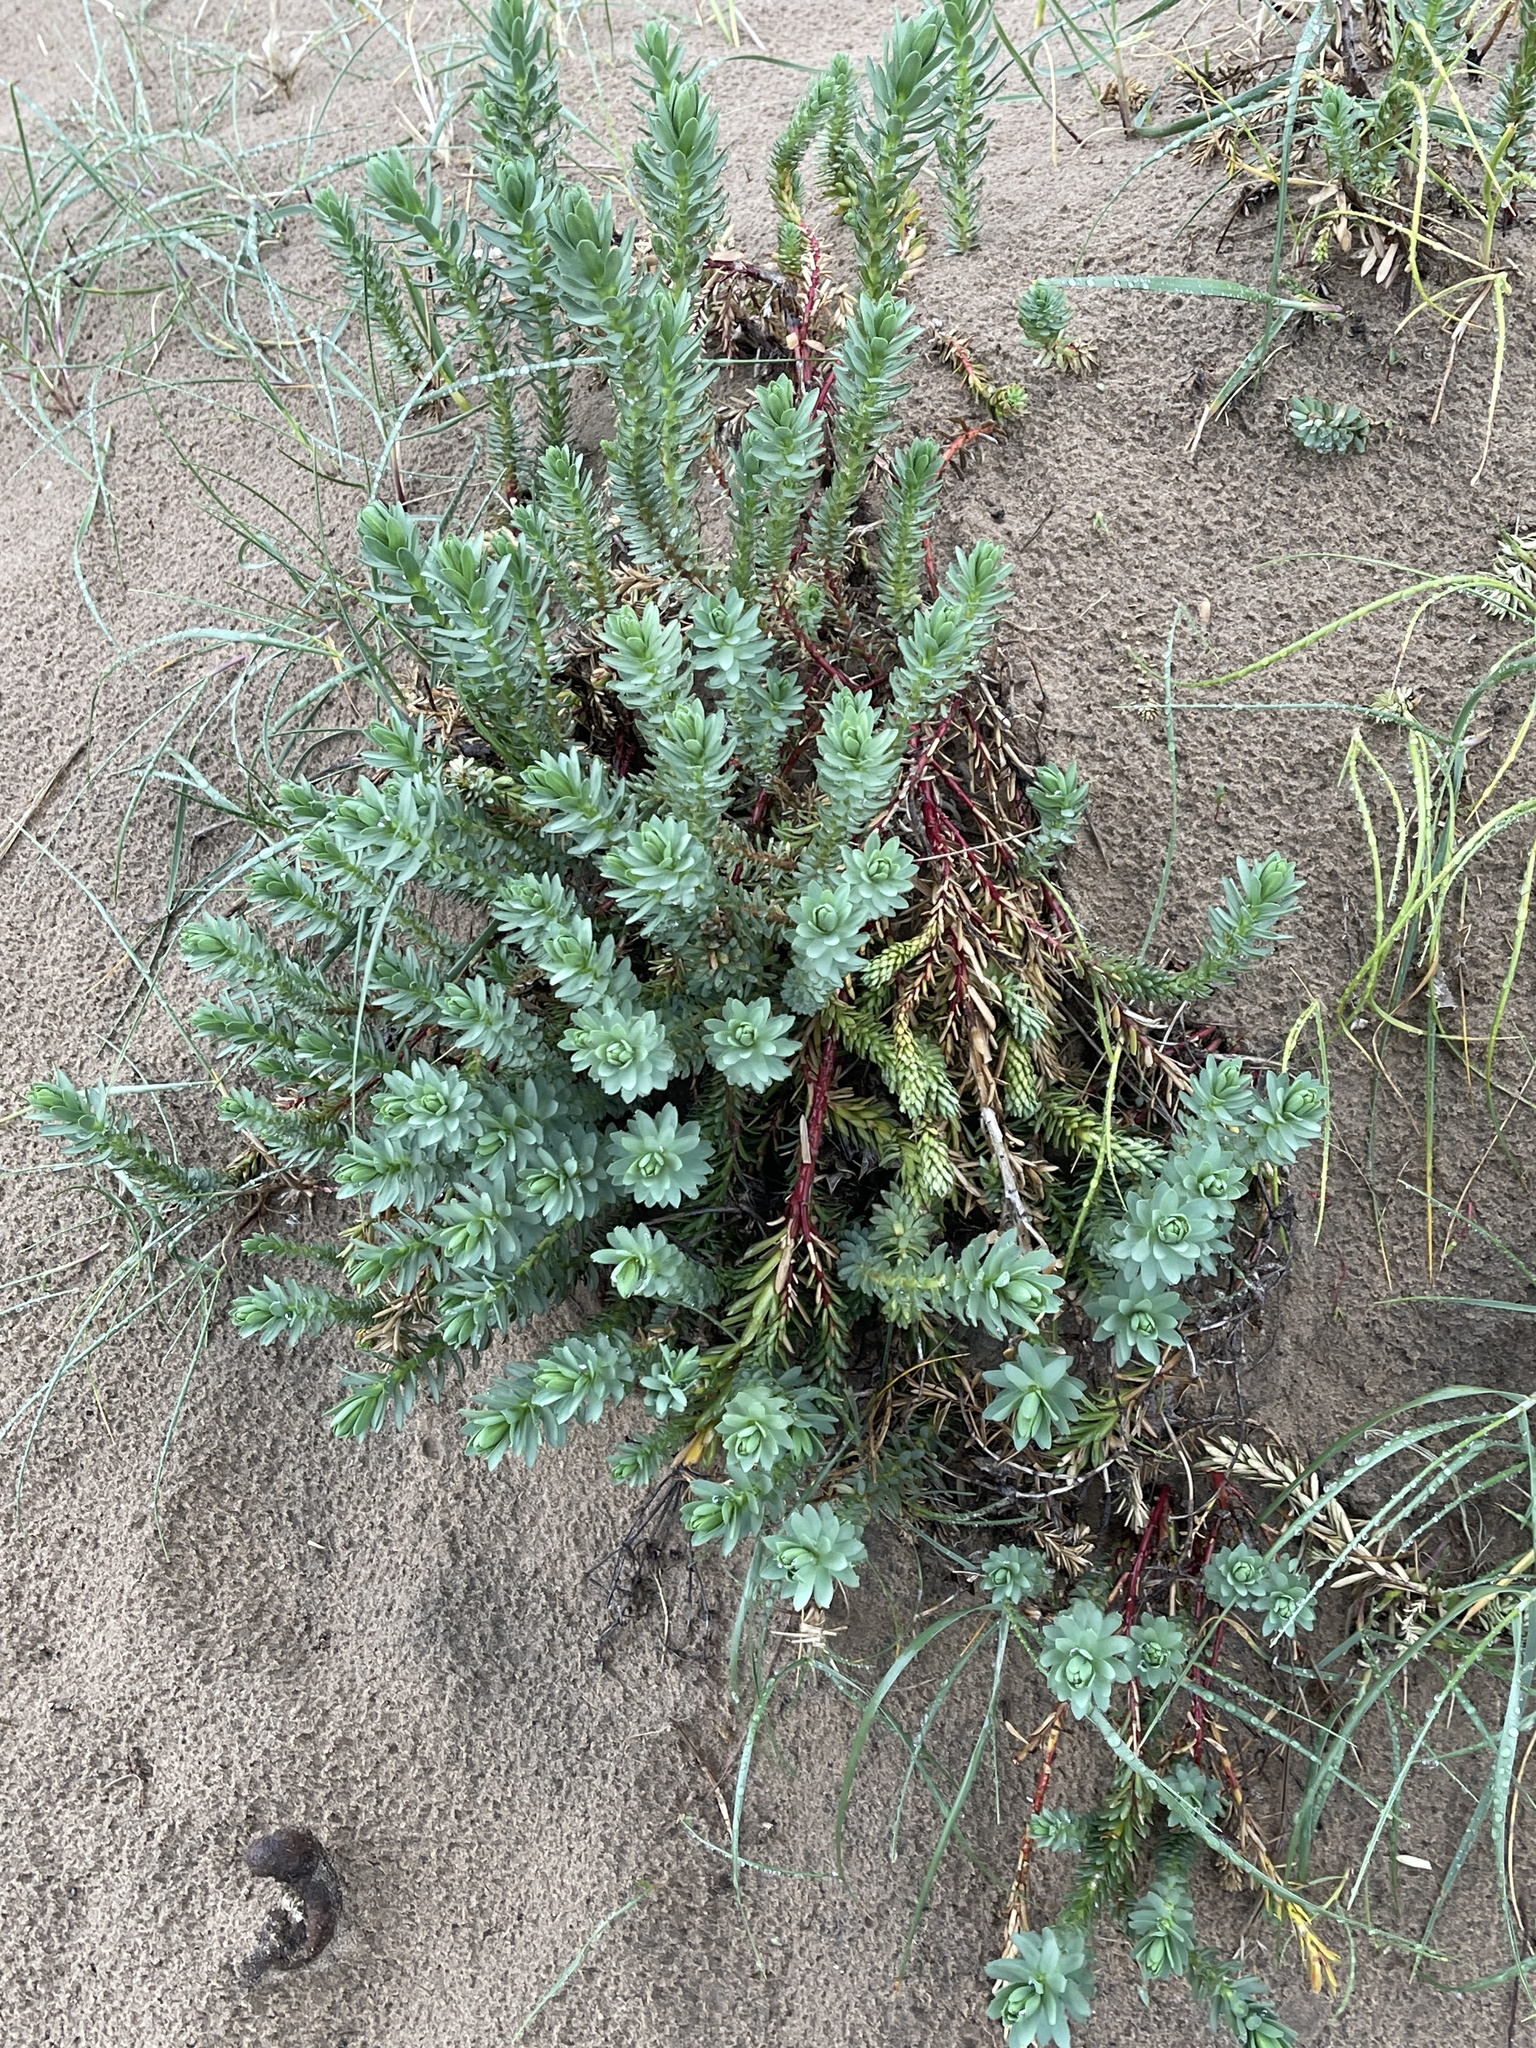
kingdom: Plantae
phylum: Tracheophyta
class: Magnoliopsida
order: Malpighiales
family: Euphorbiaceae
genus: Euphorbia
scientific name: Euphorbia paralias
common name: Sea spurge
